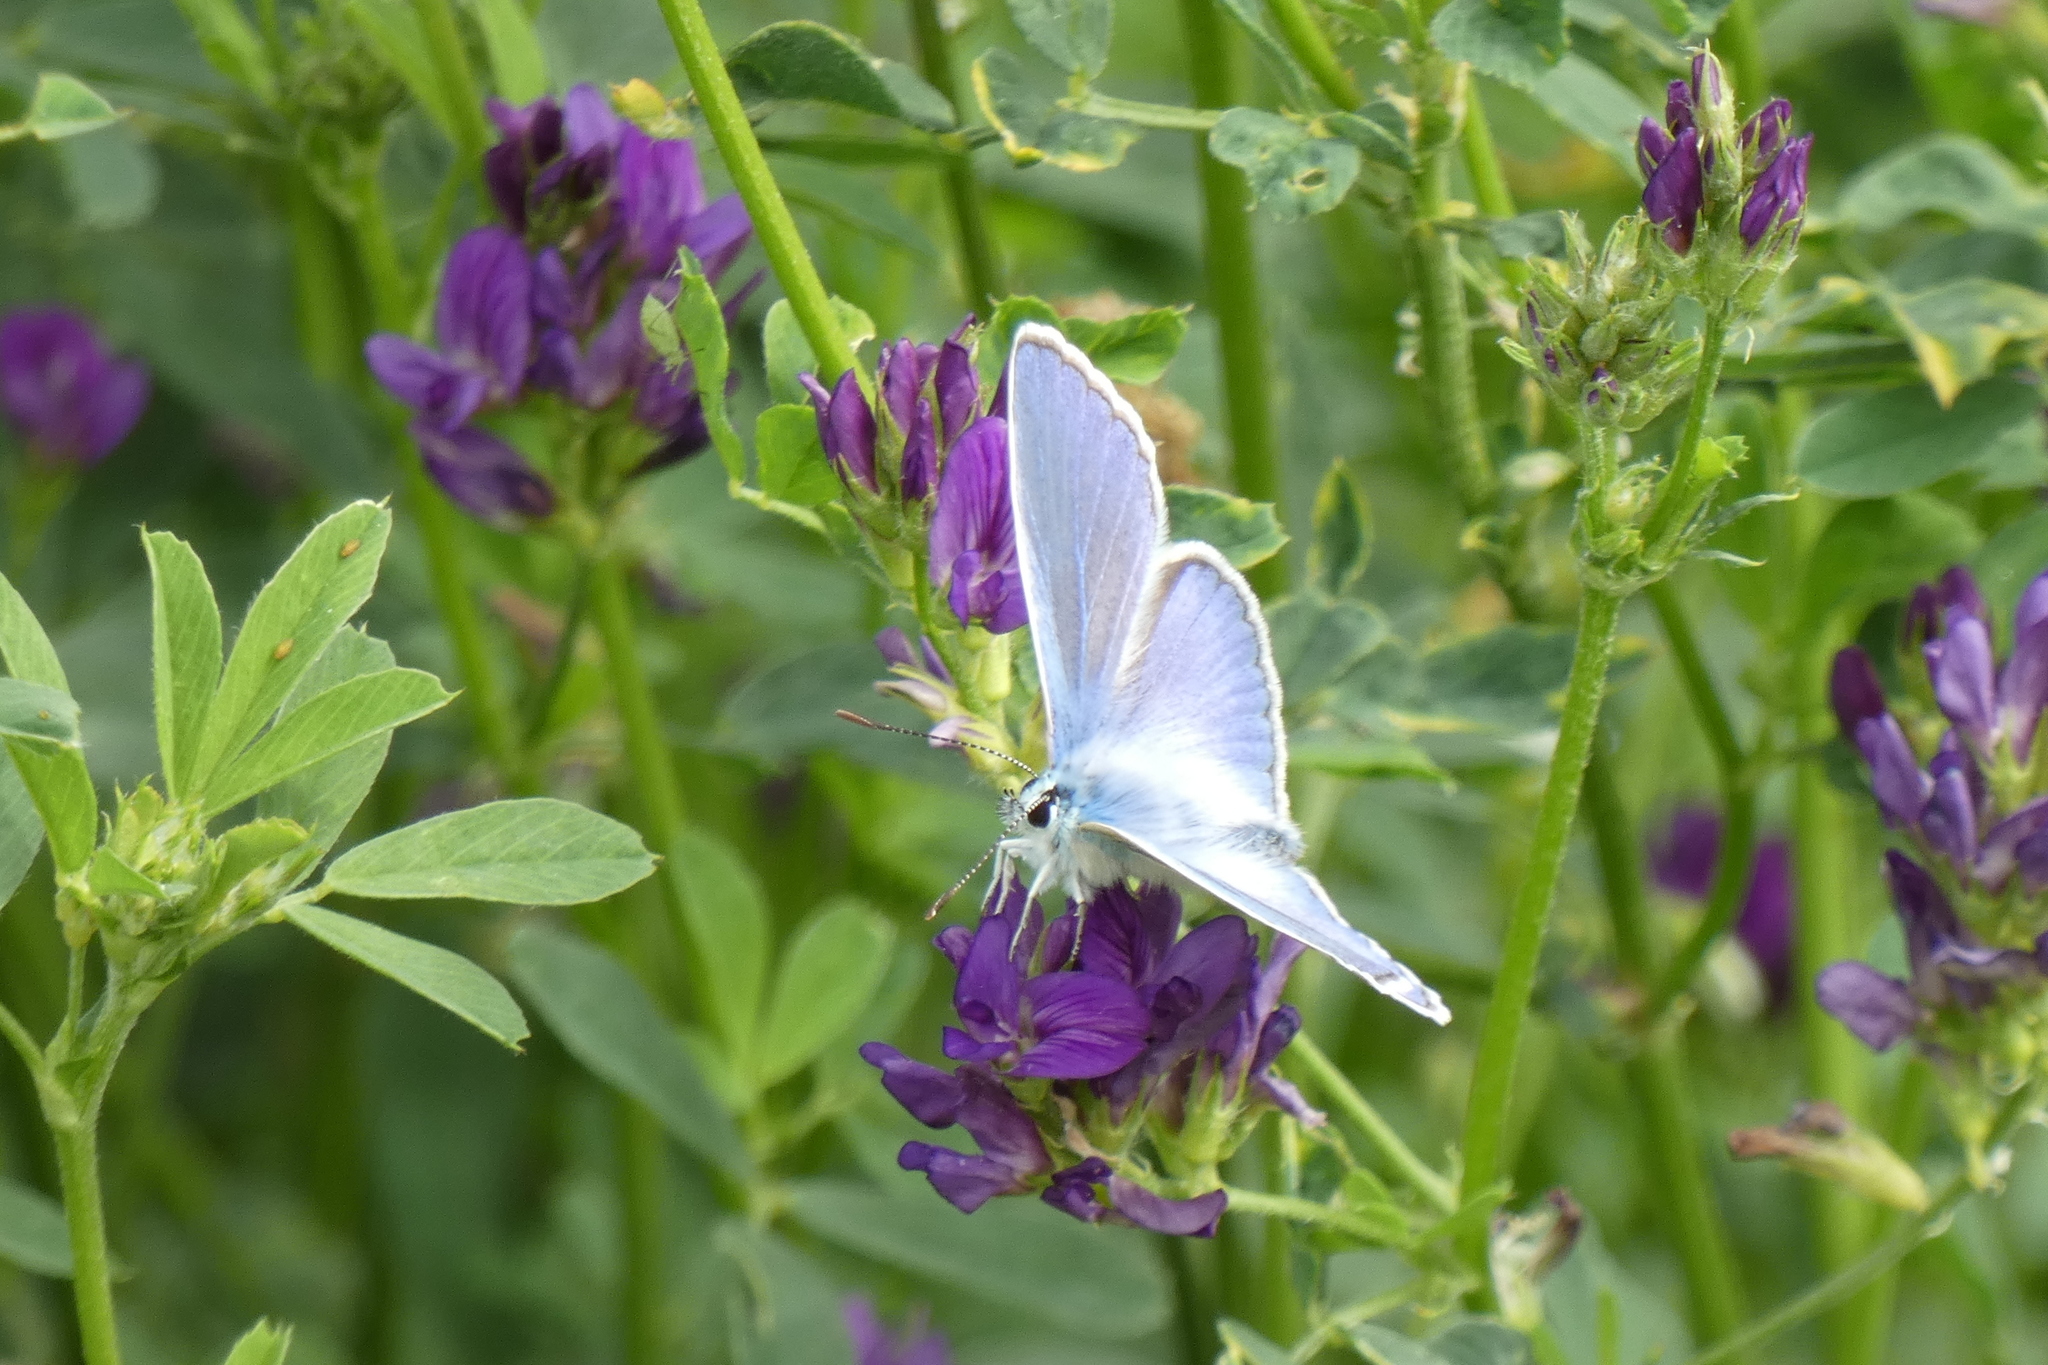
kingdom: Animalia
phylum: Arthropoda
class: Insecta
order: Lepidoptera
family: Lycaenidae
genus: Polyommatus
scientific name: Polyommatus icarus
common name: Common blue
